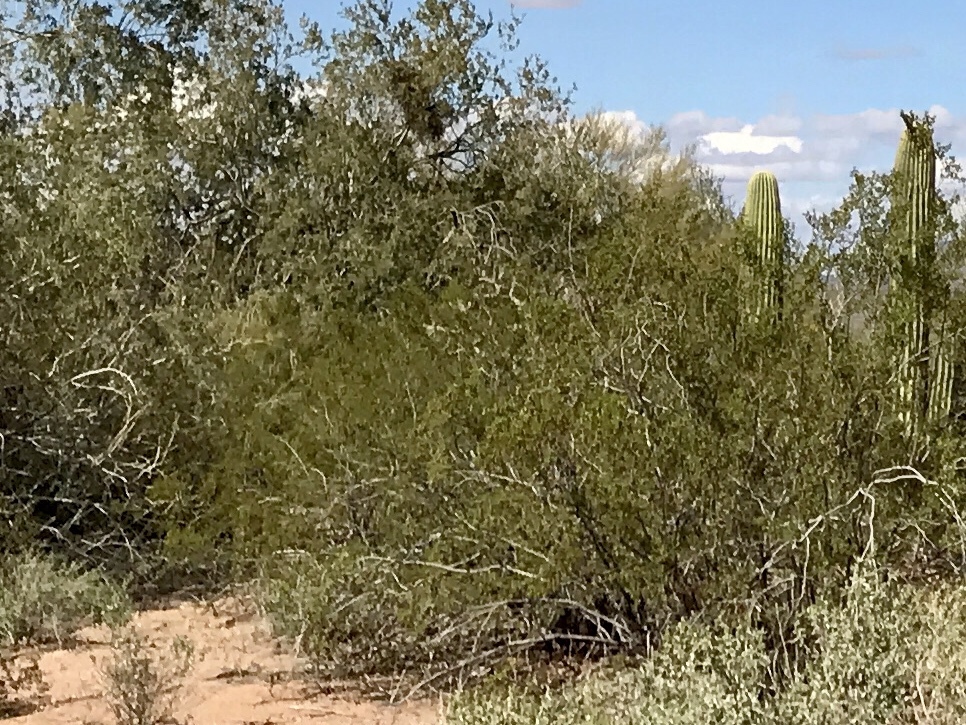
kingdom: Plantae
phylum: Tracheophyta
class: Magnoliopsida
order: Zygophyllales
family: Zygophyllaceae
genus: Larrea
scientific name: Larrea tridentata
